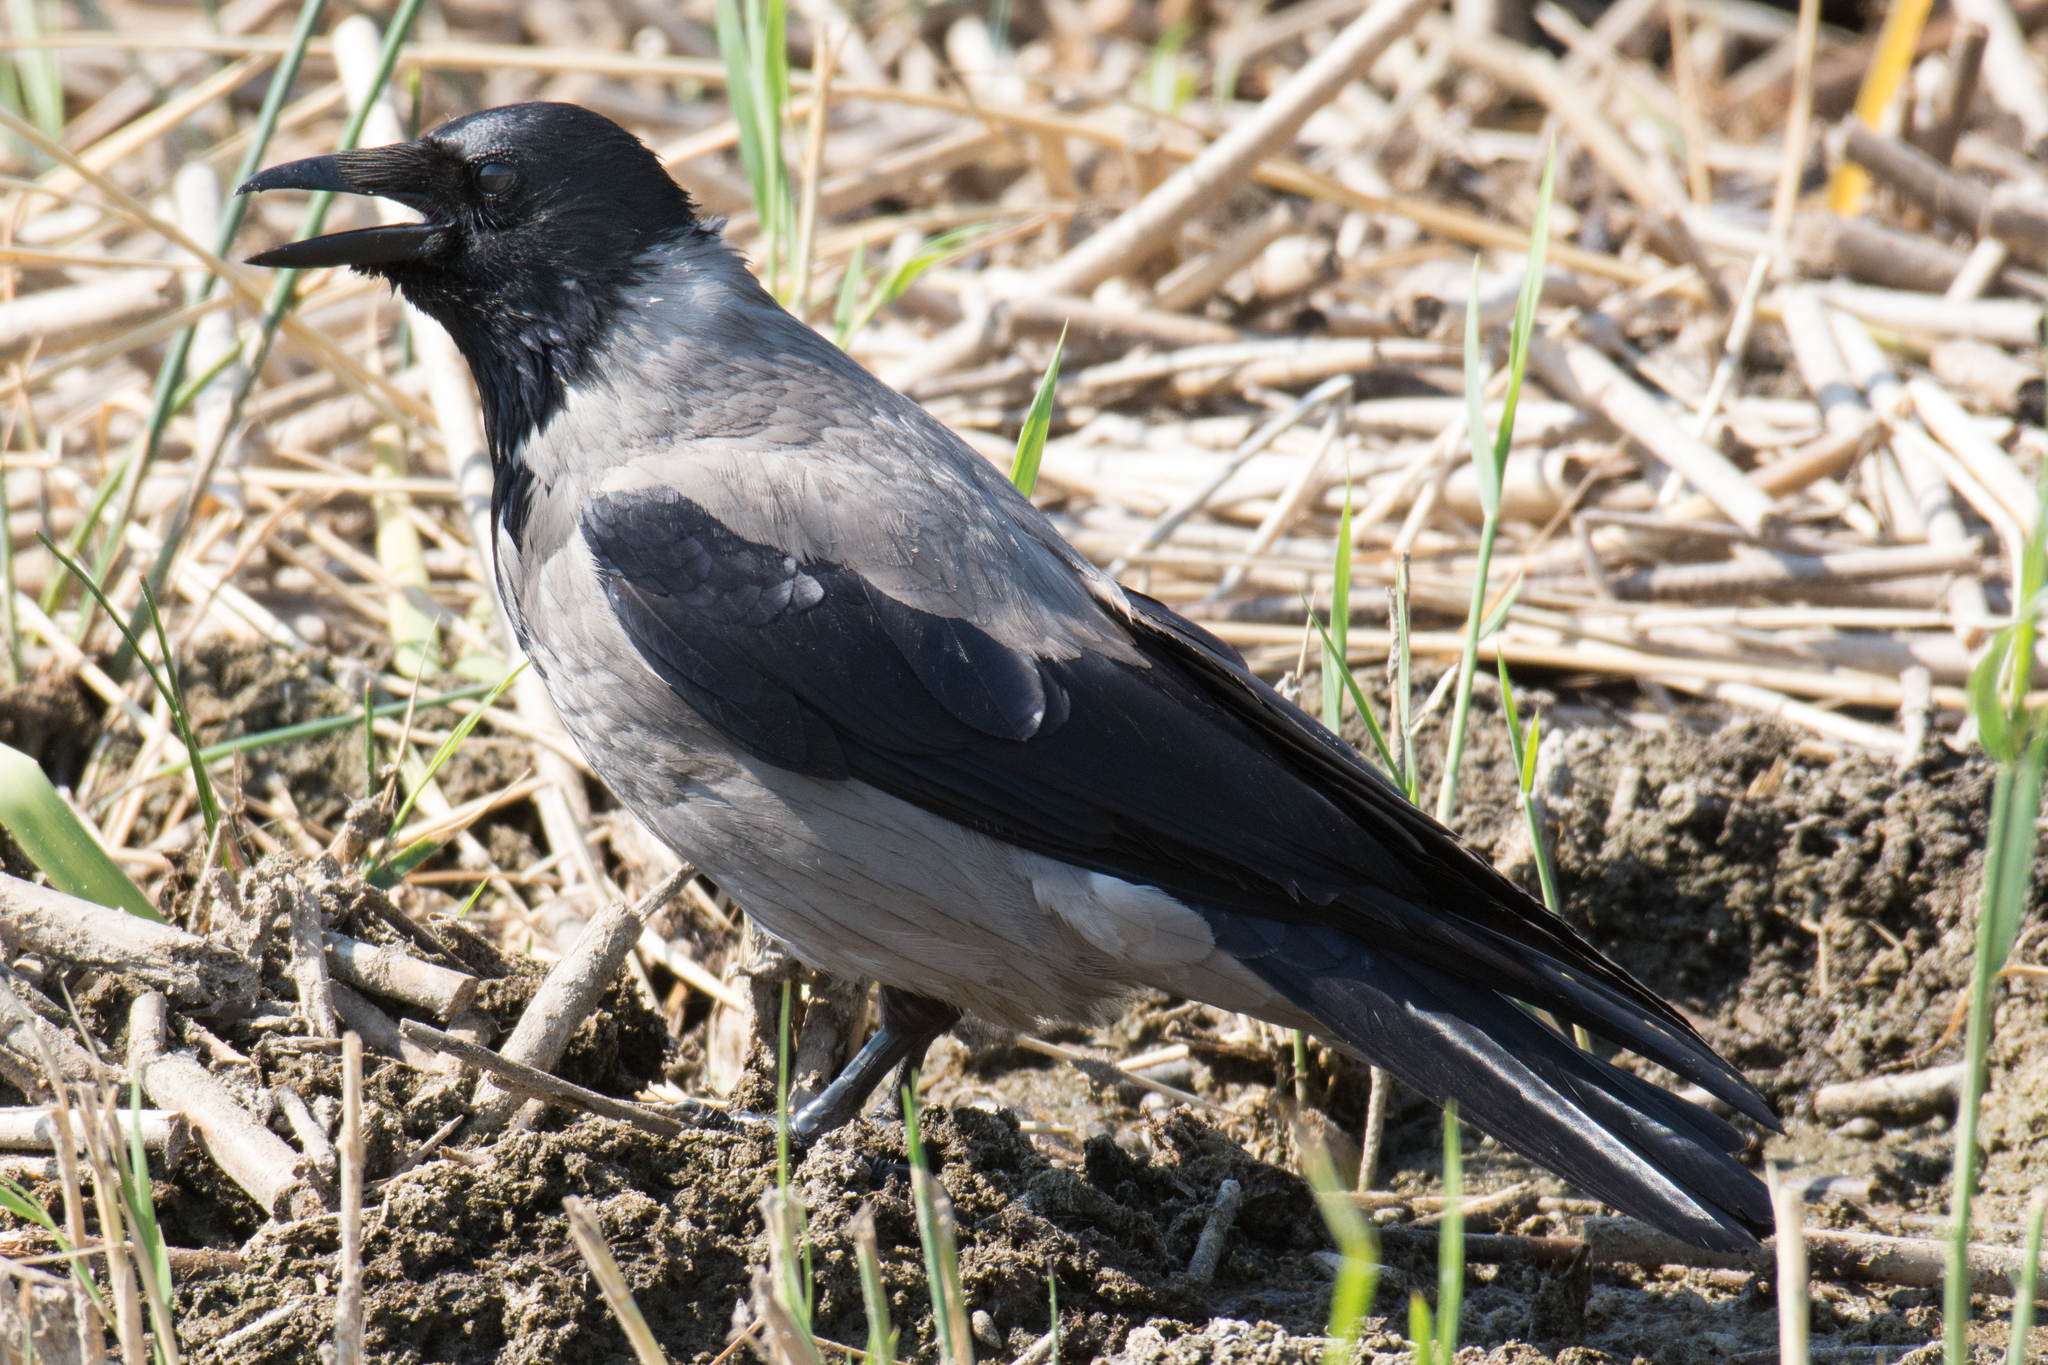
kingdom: Animalia
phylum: Chordata
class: Aves
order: Passeriformes
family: Corvidae
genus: Corvus
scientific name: Corvus cornix
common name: Hooded crow
